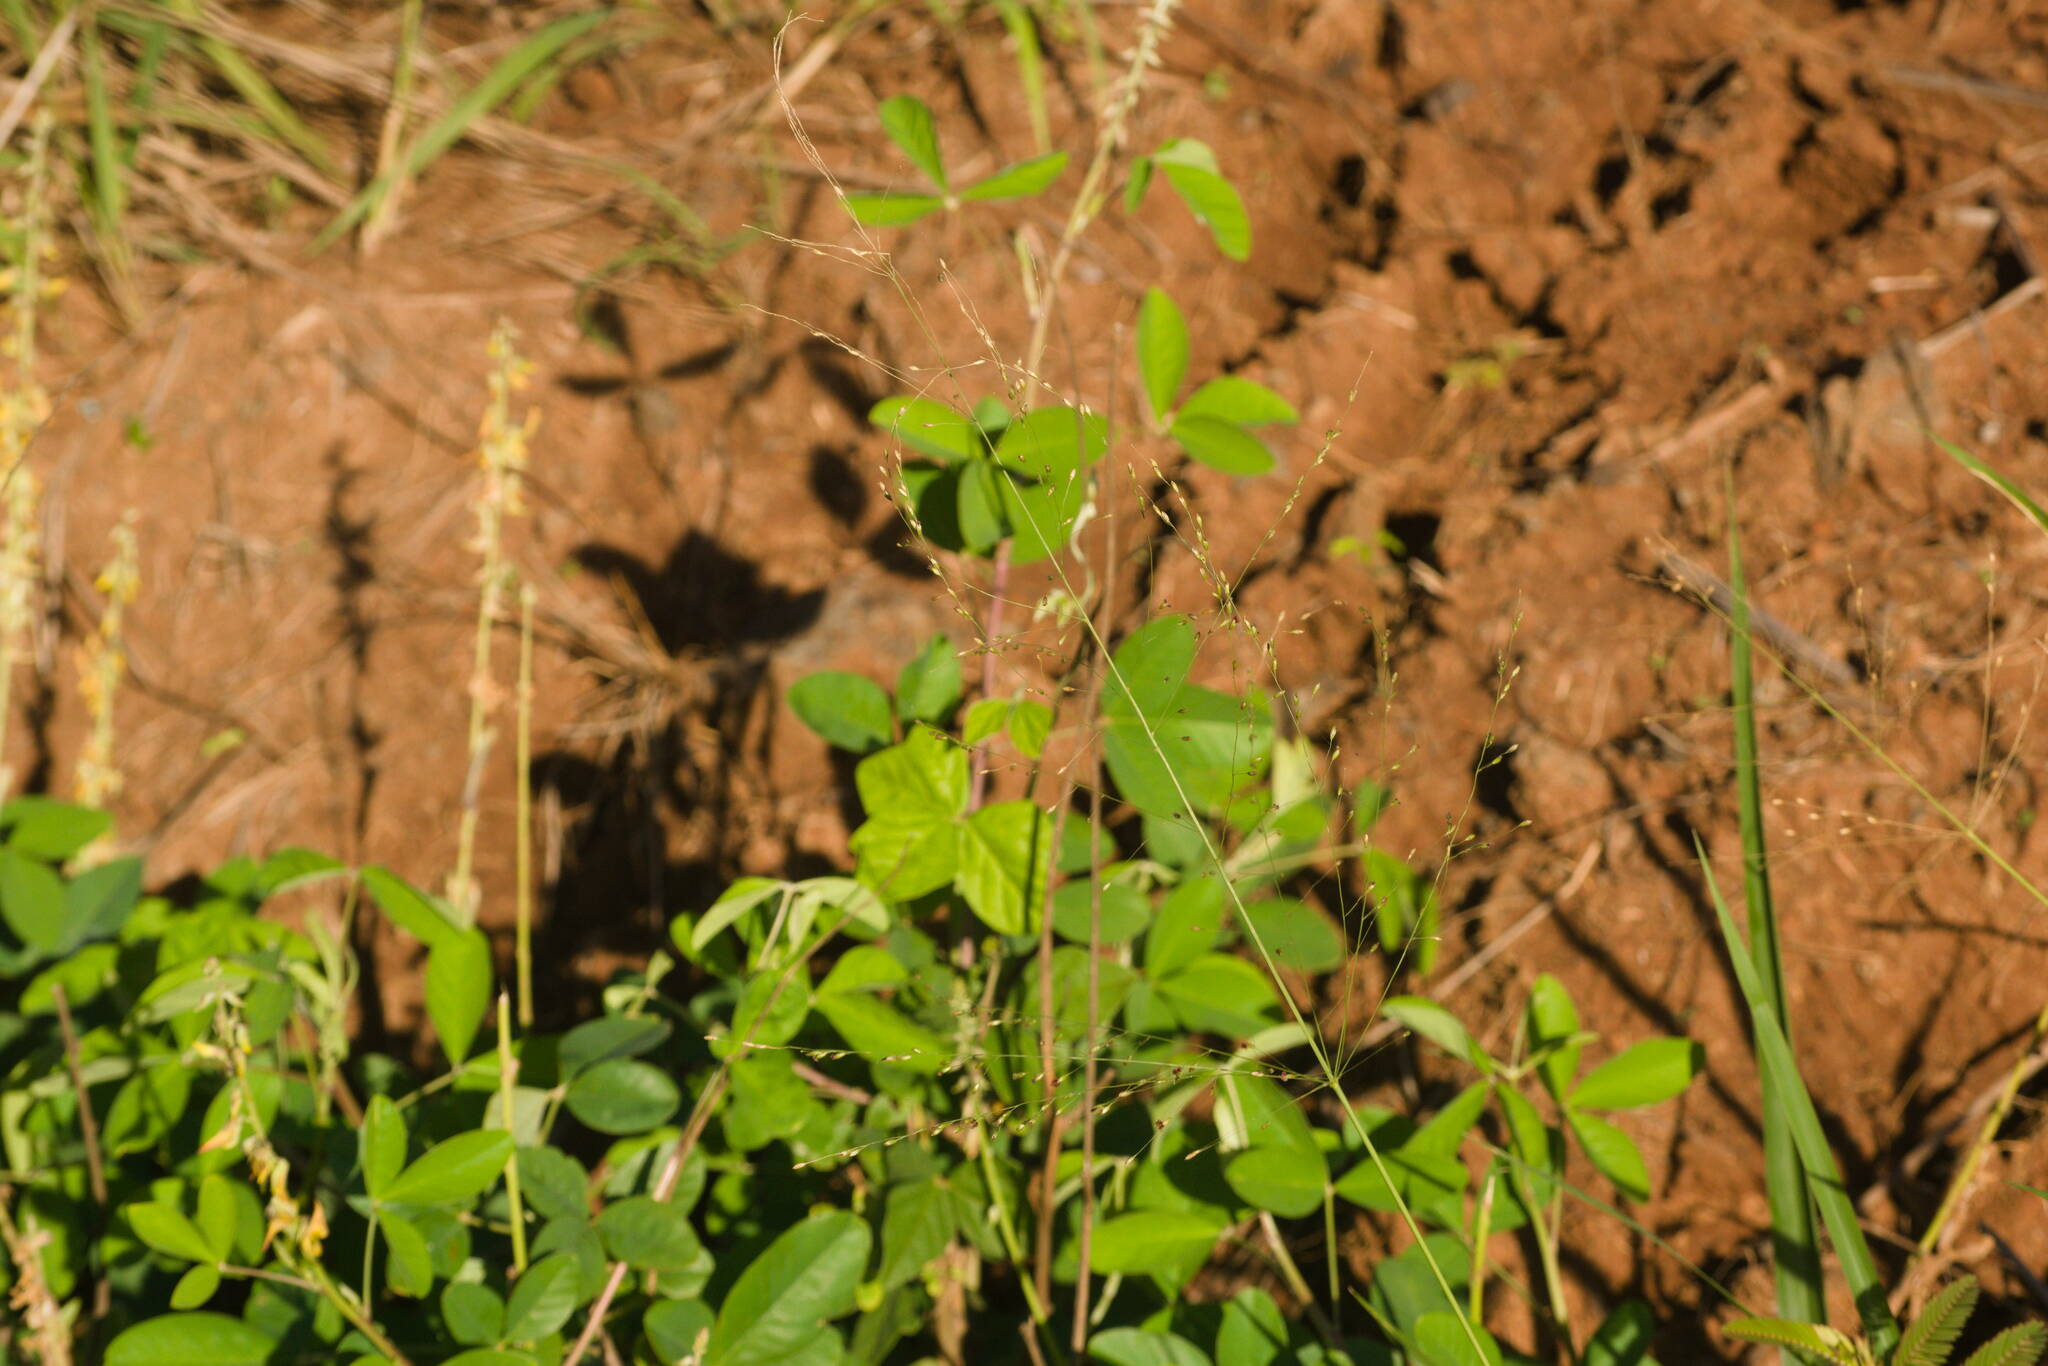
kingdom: Plantae
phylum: Tracheophyta
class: Liliopsida
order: Poales
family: Poaceae
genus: Megathyrsus
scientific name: Megathyrsus maximus
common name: Guineagrass
